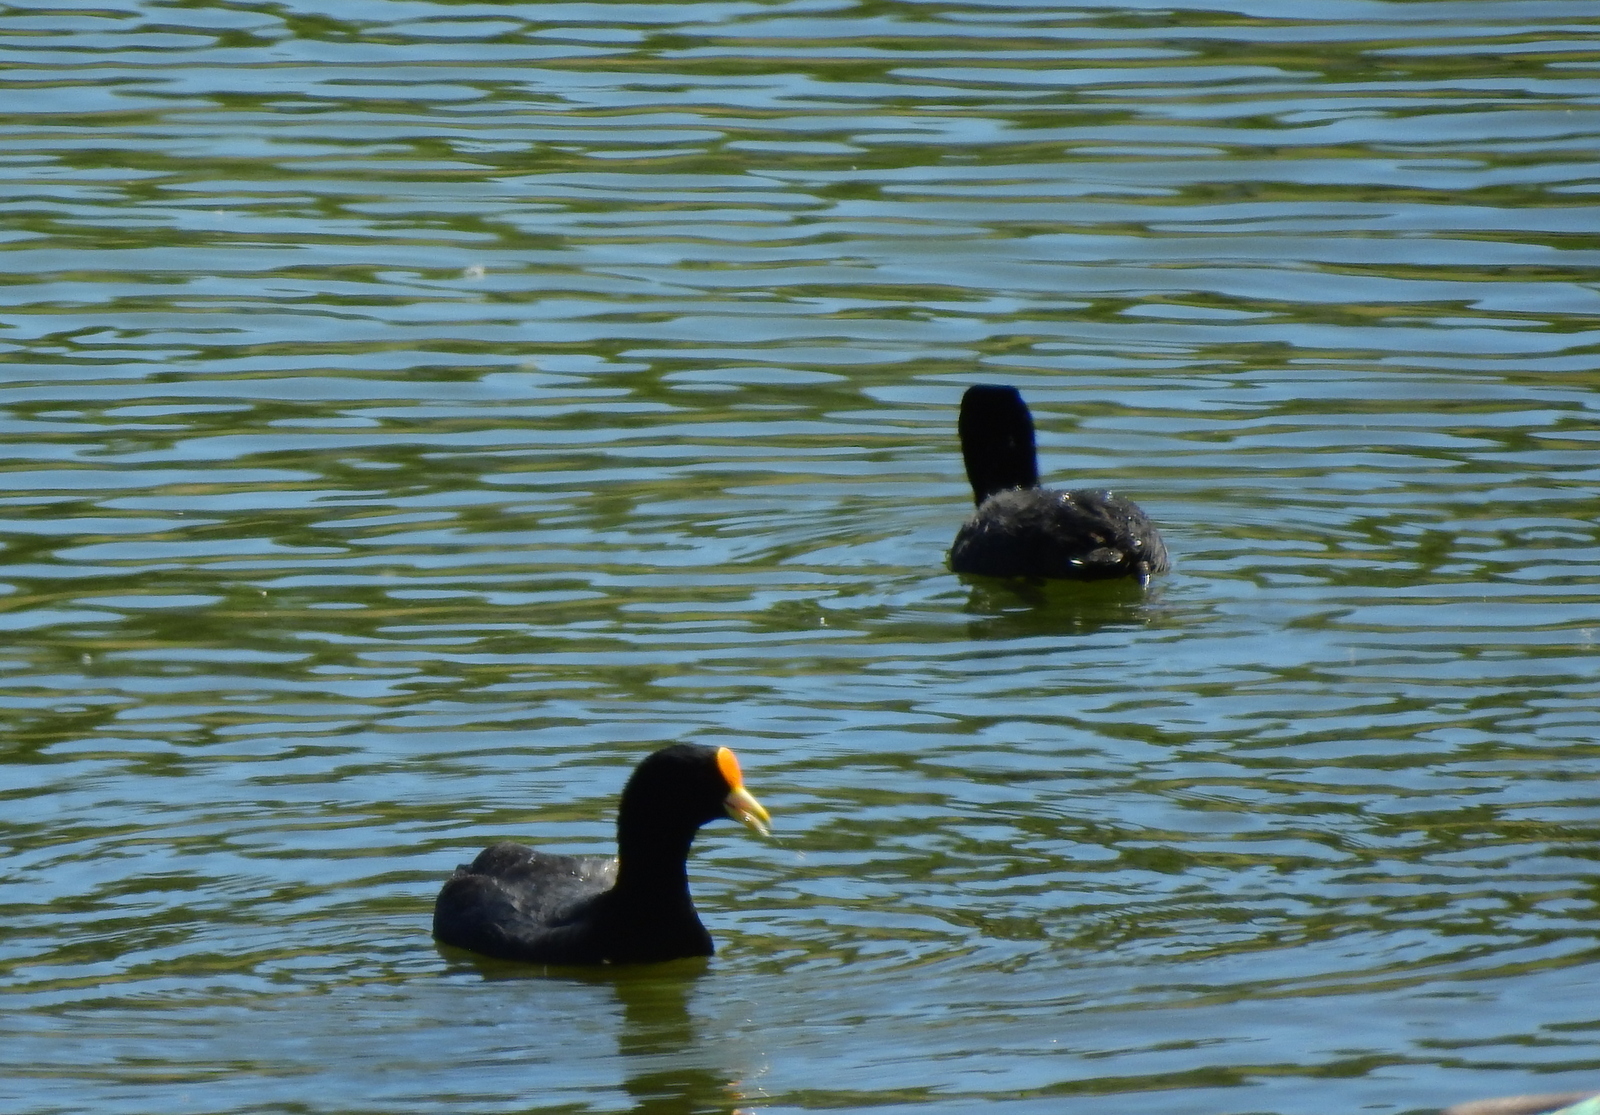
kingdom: Animalia
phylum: Chordata
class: Aves
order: Gruiformes
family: Rallidae
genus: Fulica
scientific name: Fulica leucoptera
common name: White-winged coot
